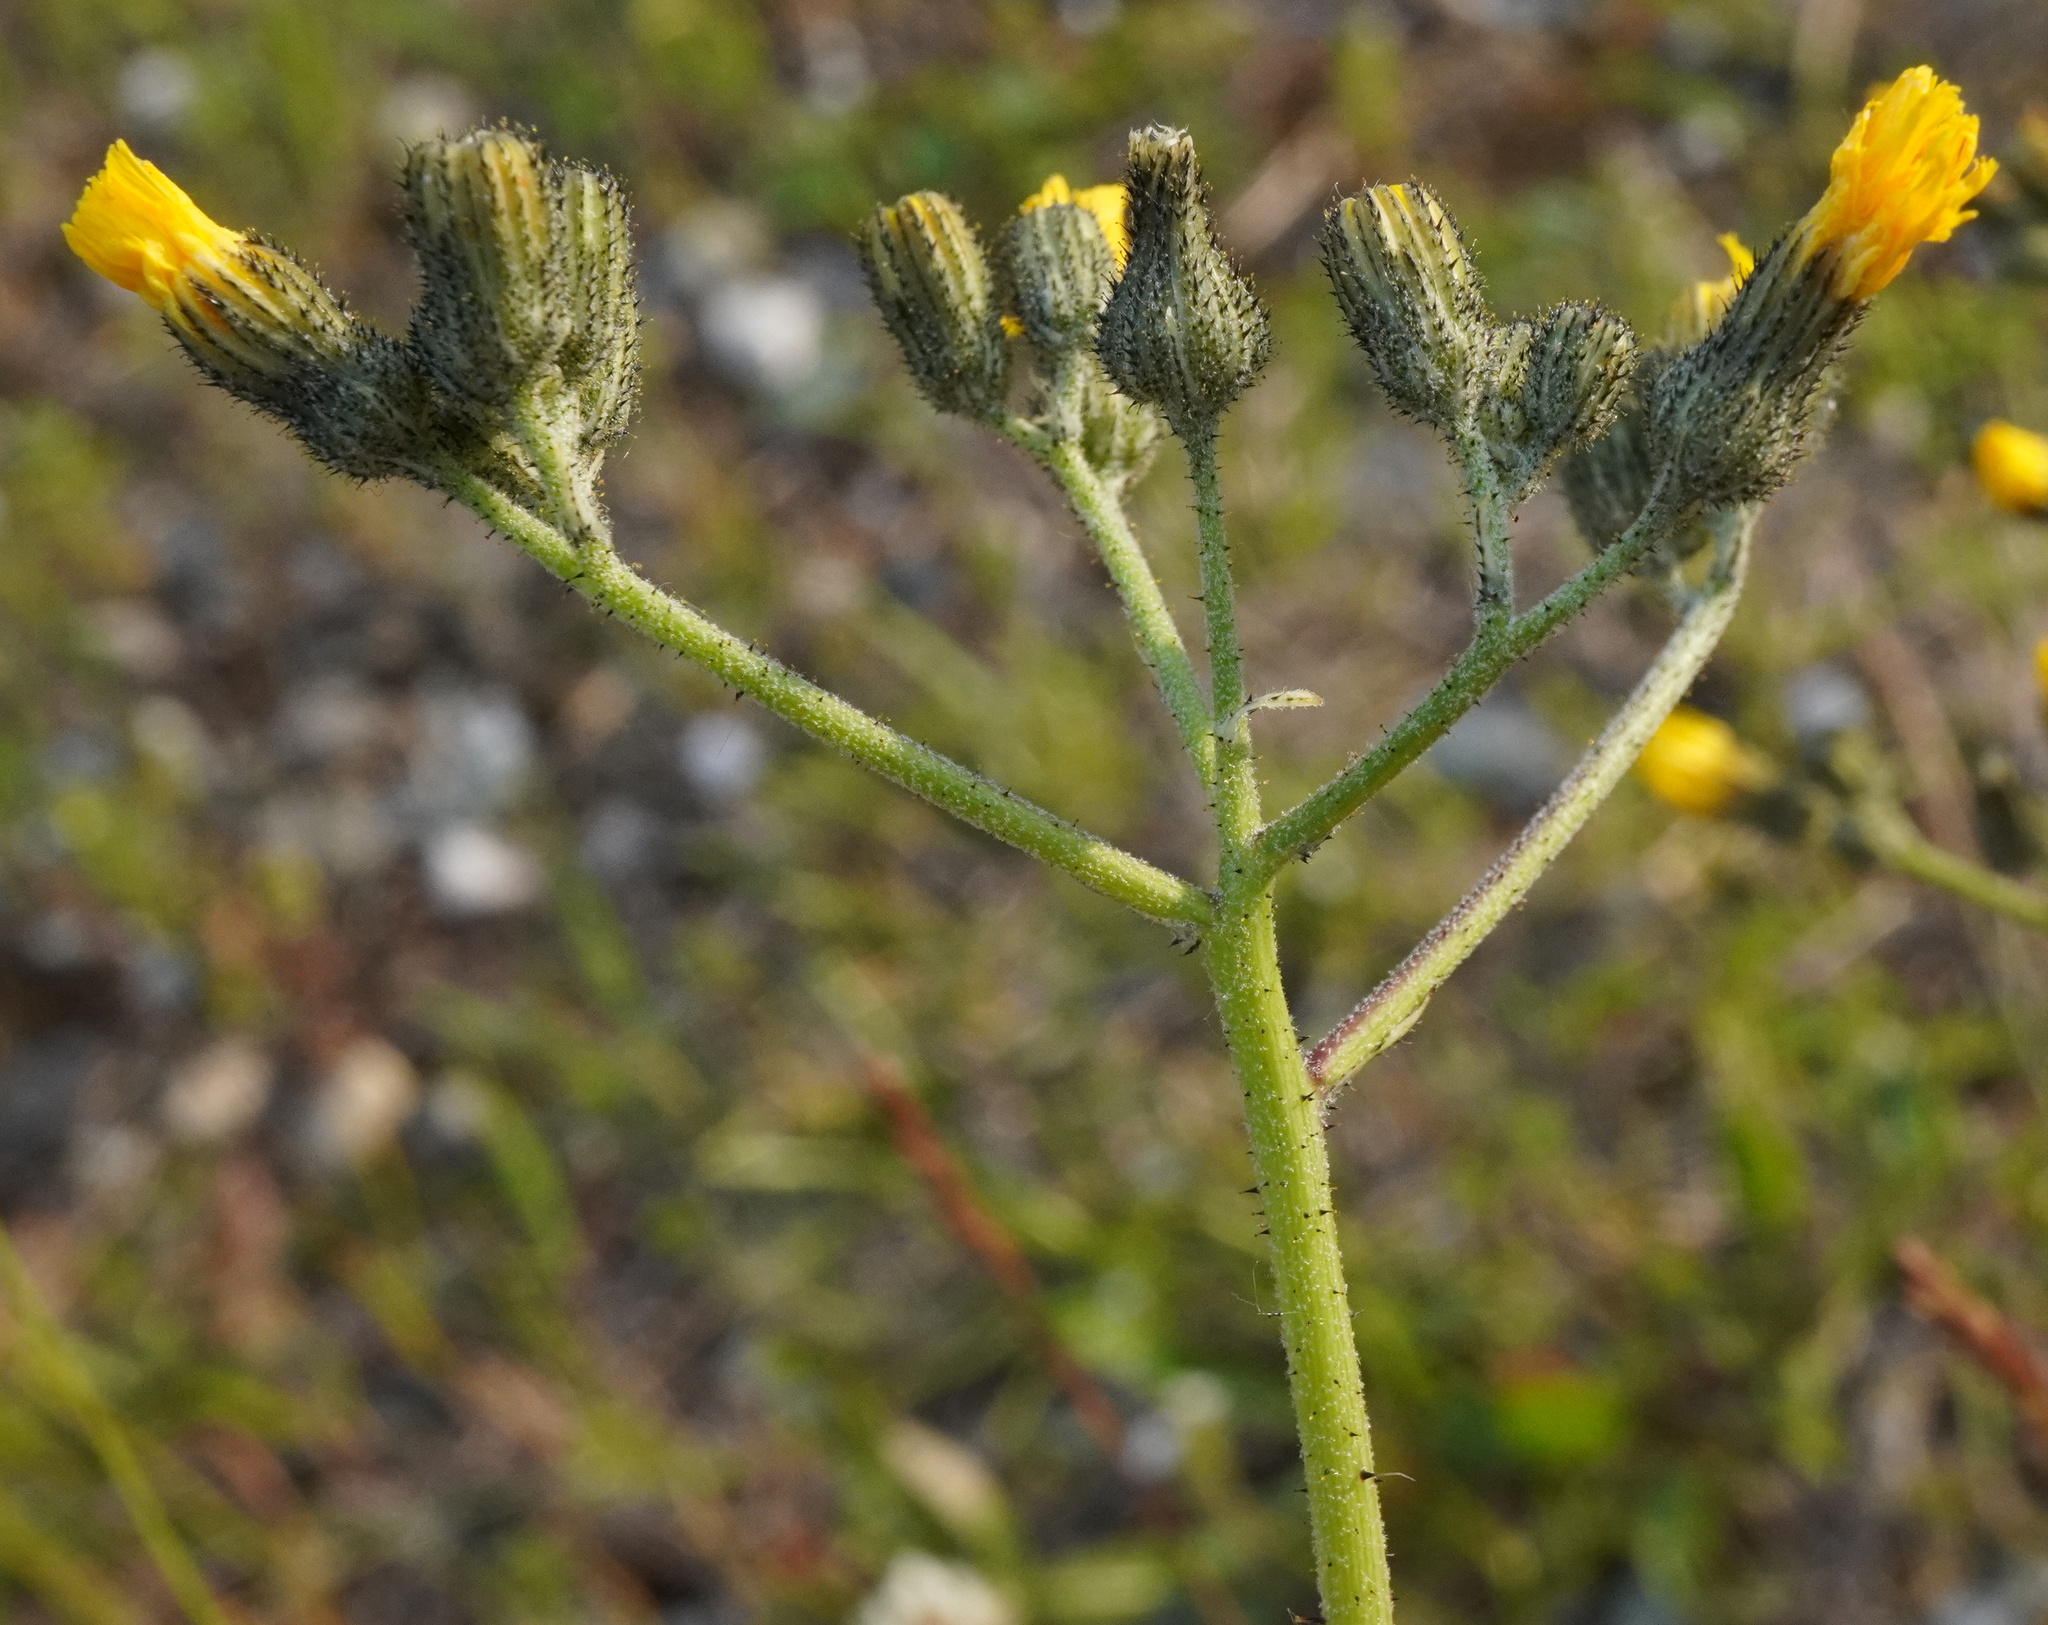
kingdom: Plantae
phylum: Tracheophyta
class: Magnoliopsida
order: Asterales
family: Asteraceae
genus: Pilosella
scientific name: Pilosella piloselloides
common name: Glaucous king-devil
